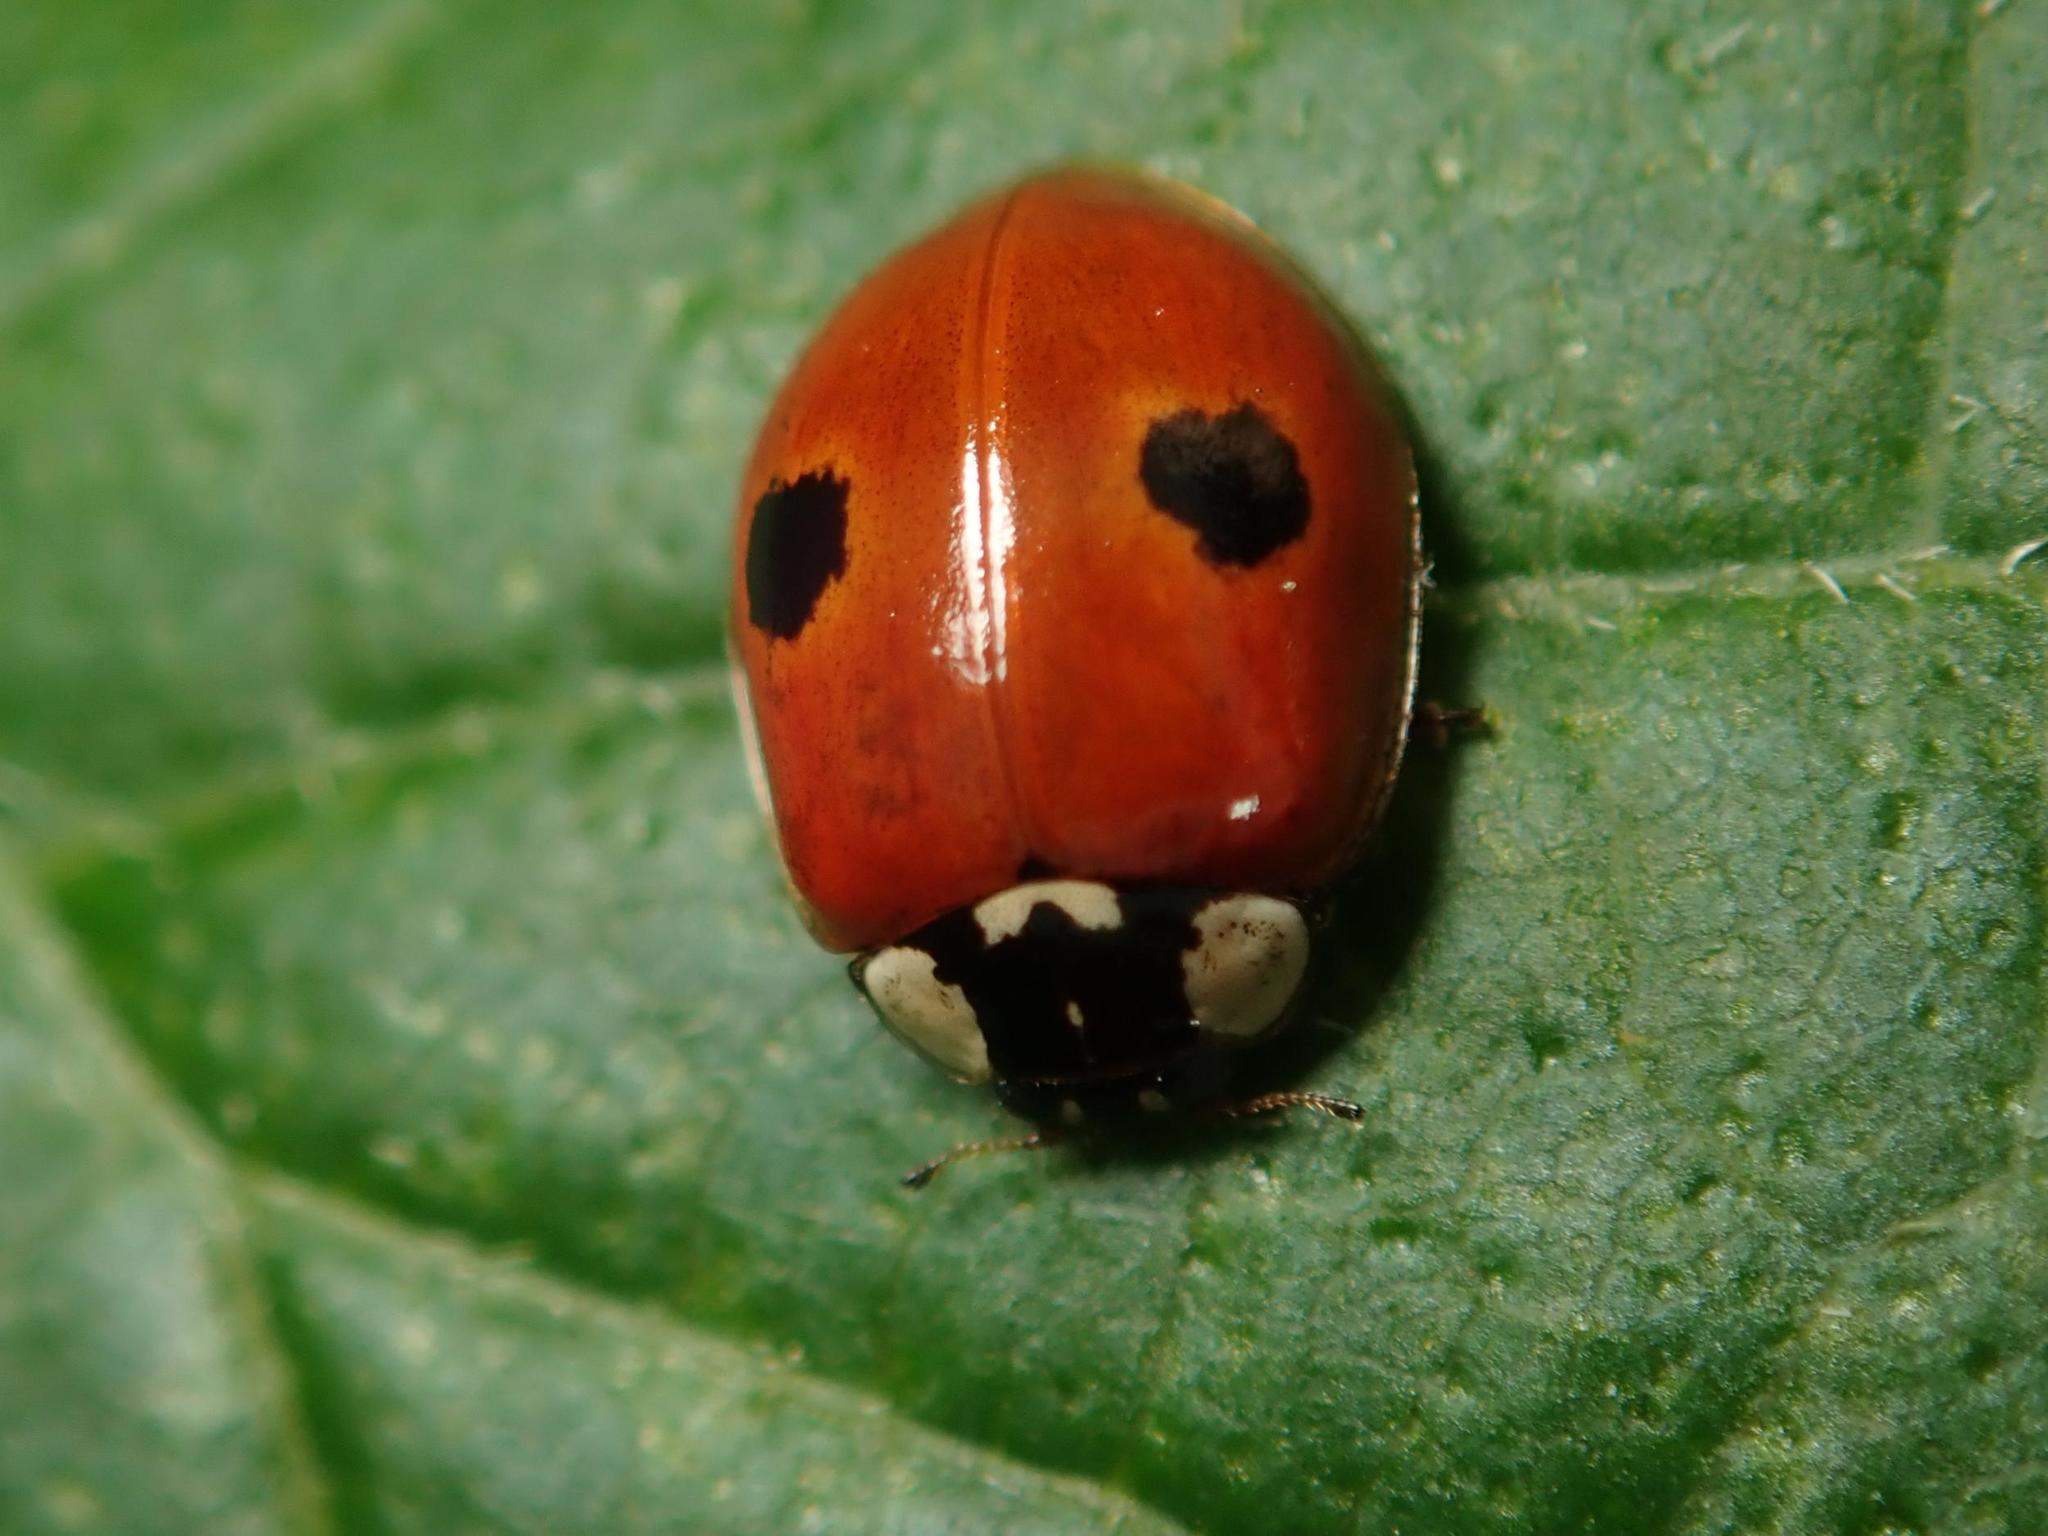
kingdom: Animalia
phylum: Arthropoda
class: Insecta
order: Coleoptera
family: Coccinellidae
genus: Adalia
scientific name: Adalia bipunctata
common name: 2-spot ladybird
